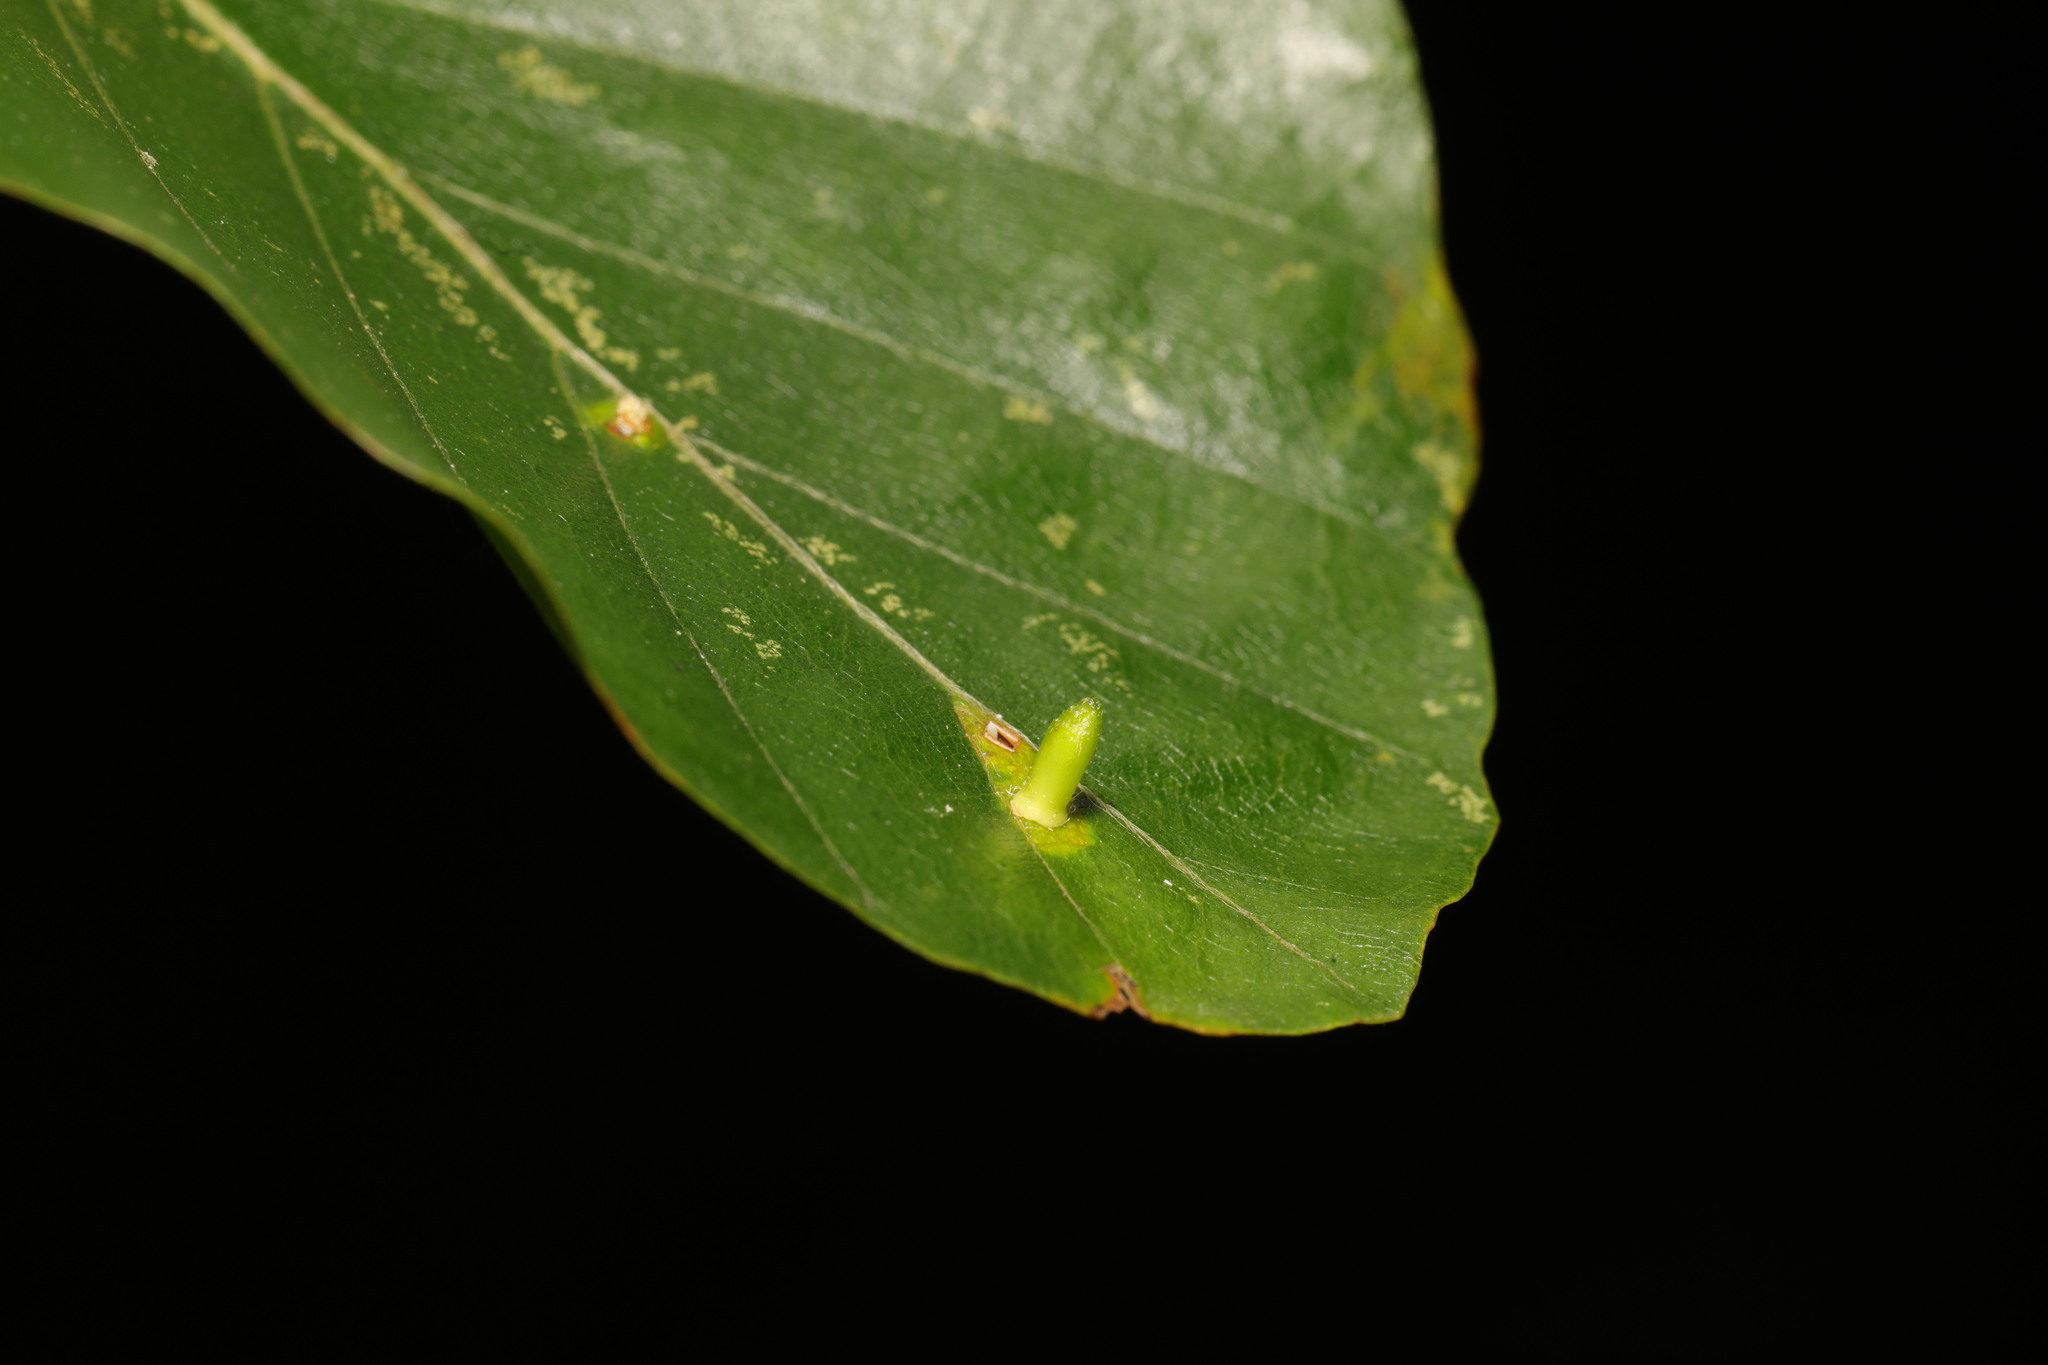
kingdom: Animalia
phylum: Arthropoda
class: Insecta
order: Diptera
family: Cecidomyiidae
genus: Hartigiola
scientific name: Hartigiola annulipes
